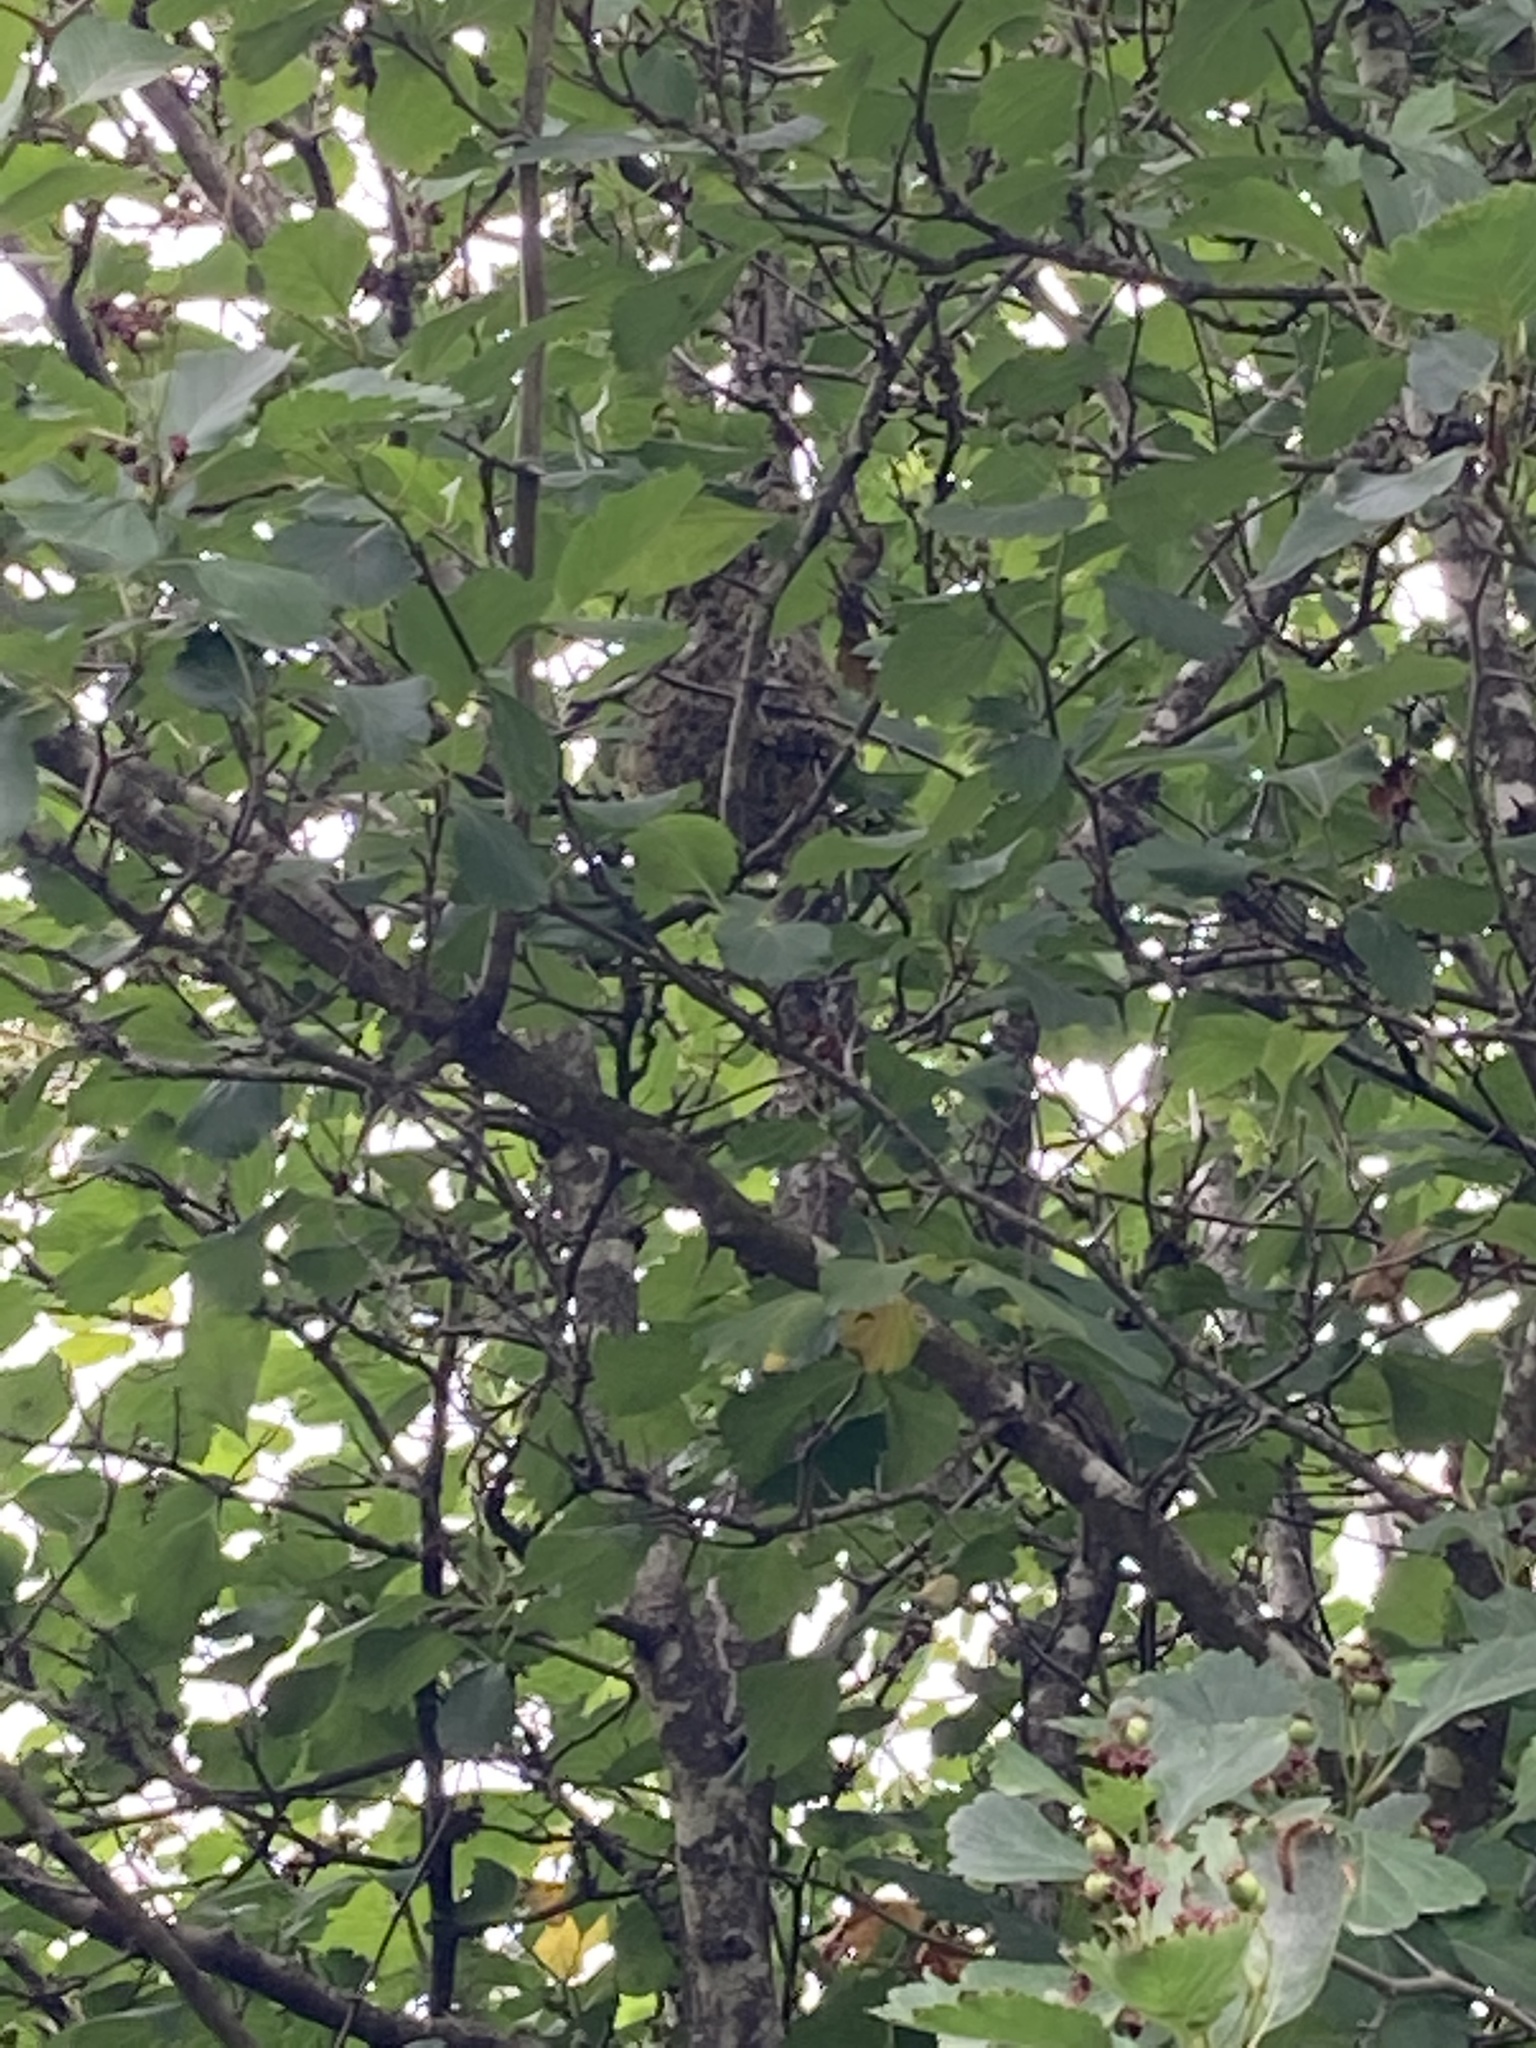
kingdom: Animalia
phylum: Chordata
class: Aves
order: Passeriformes
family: Aegithalidae
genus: Psaltriparus
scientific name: Psaltriparus minimus
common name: American bushtit
